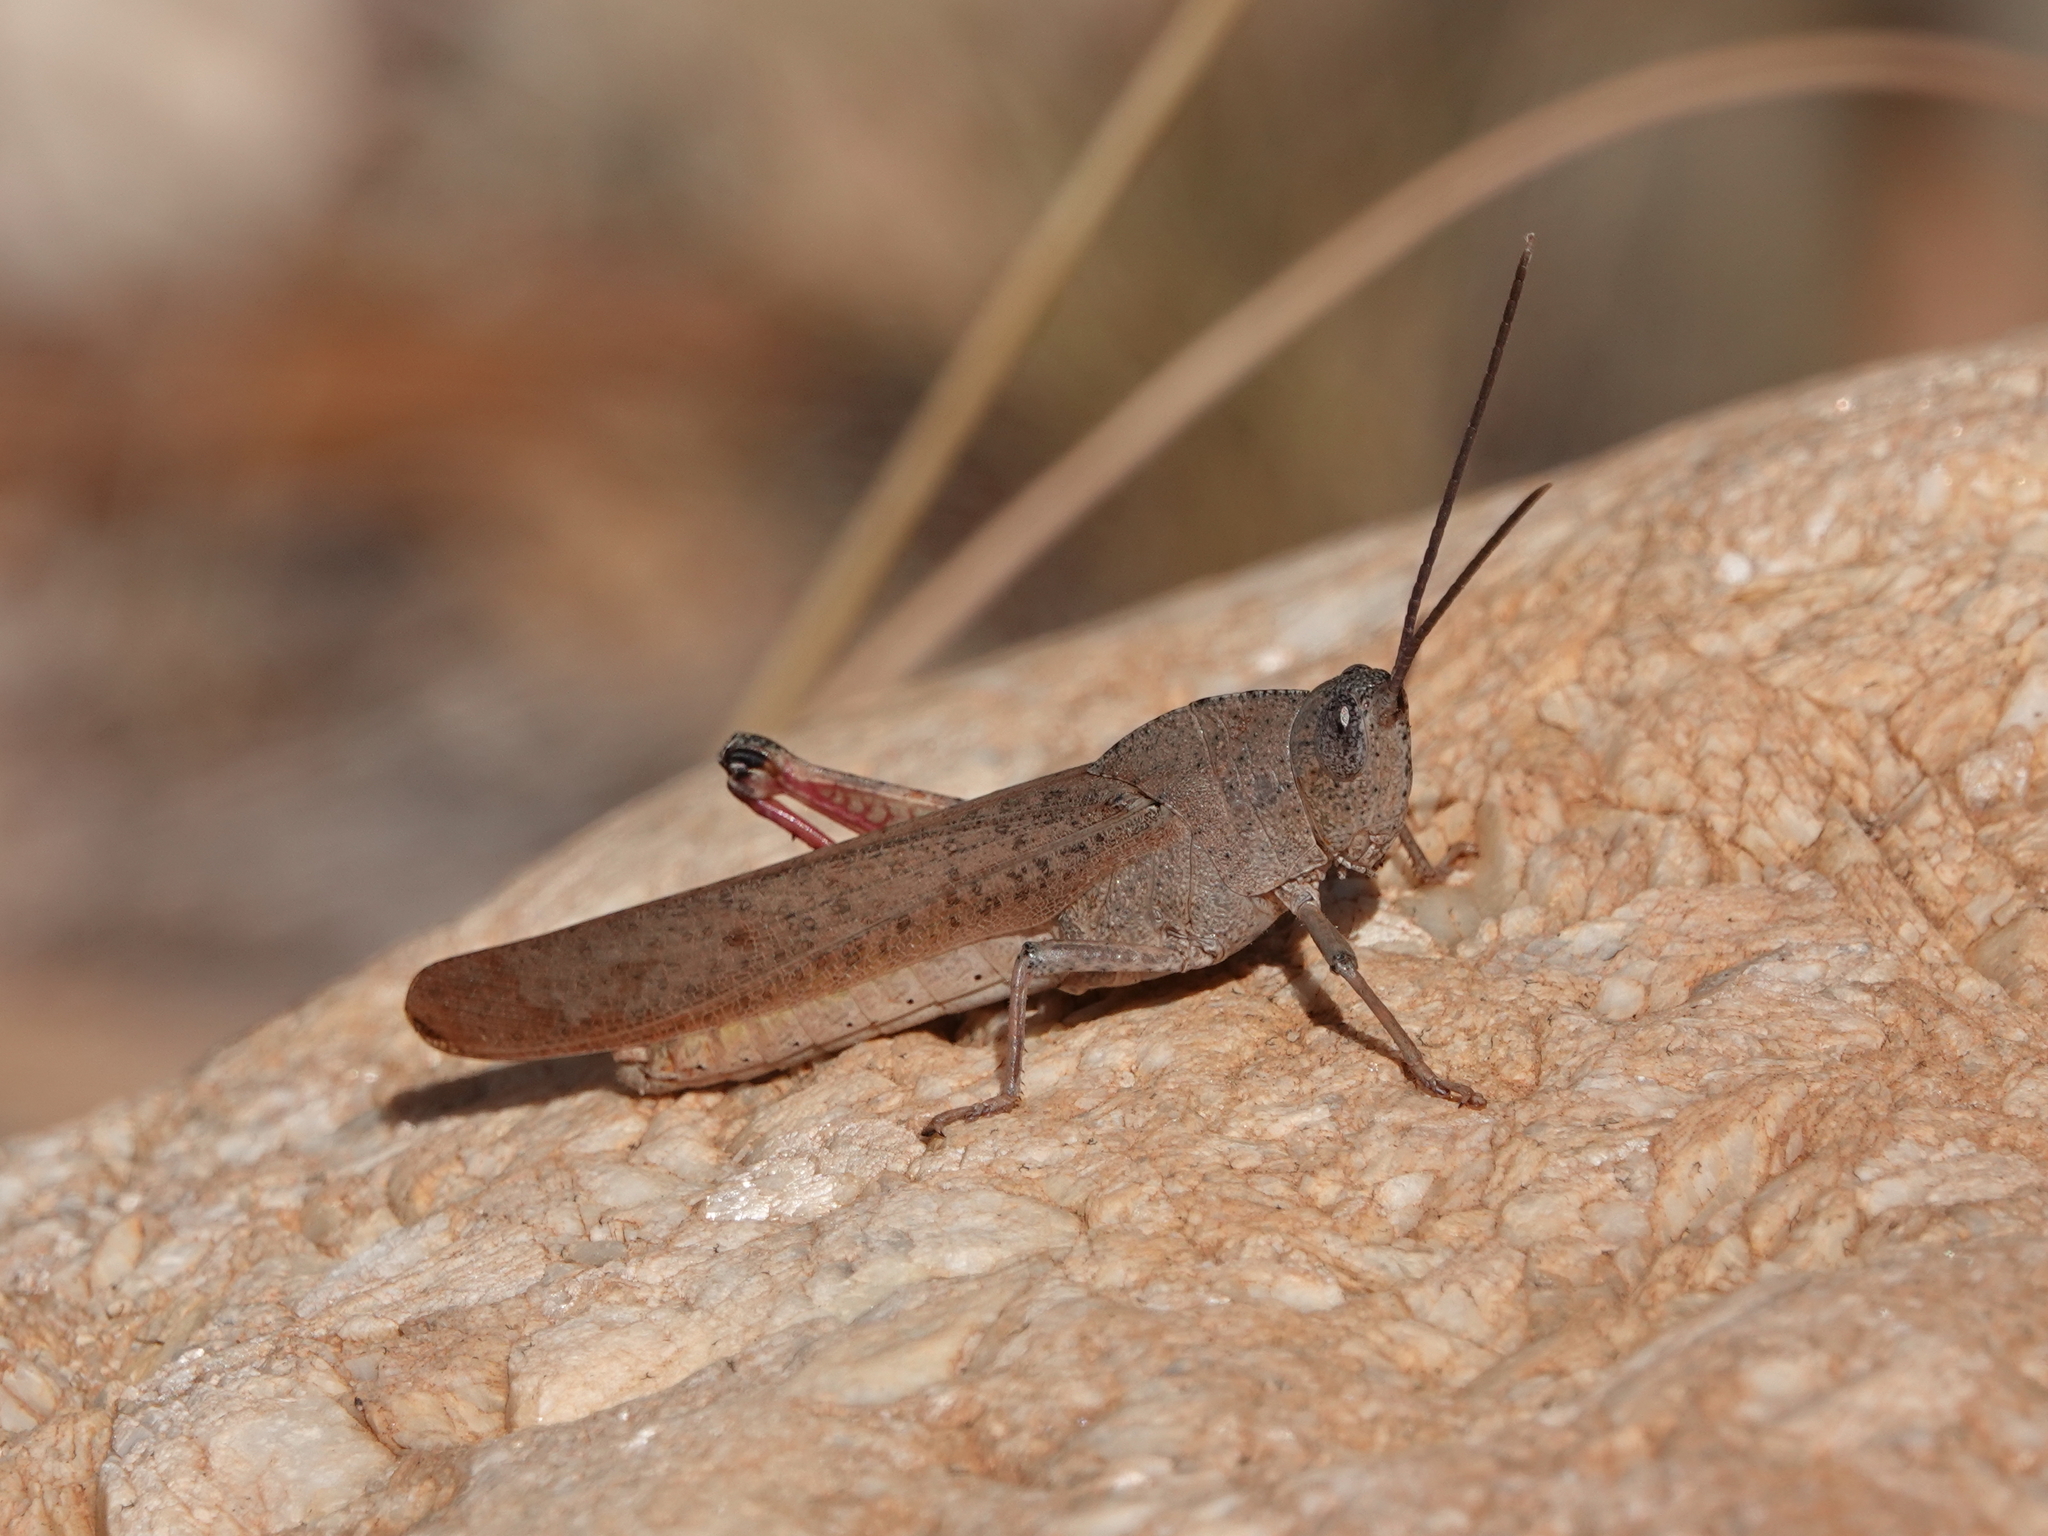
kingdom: Animalia
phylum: Arthropoda
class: Insecta
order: Orthoptera
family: Acrididae
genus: Goniaea
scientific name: Goniaea australasiae
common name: Gumleaf grasshopper
